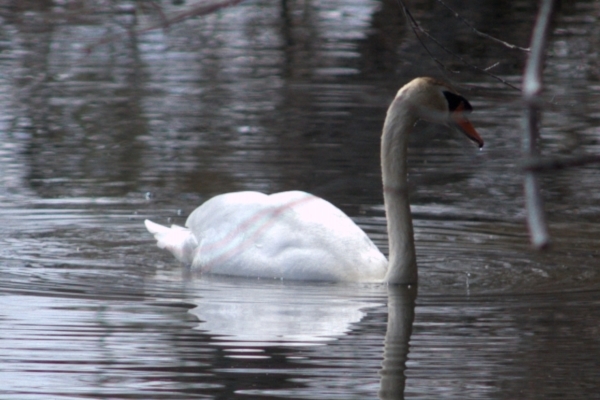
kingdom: Animalia
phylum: Chordata
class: Aves
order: Anseriformes
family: Anatidae
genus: Cygnus
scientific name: Cygnus olor
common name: Mute swan
